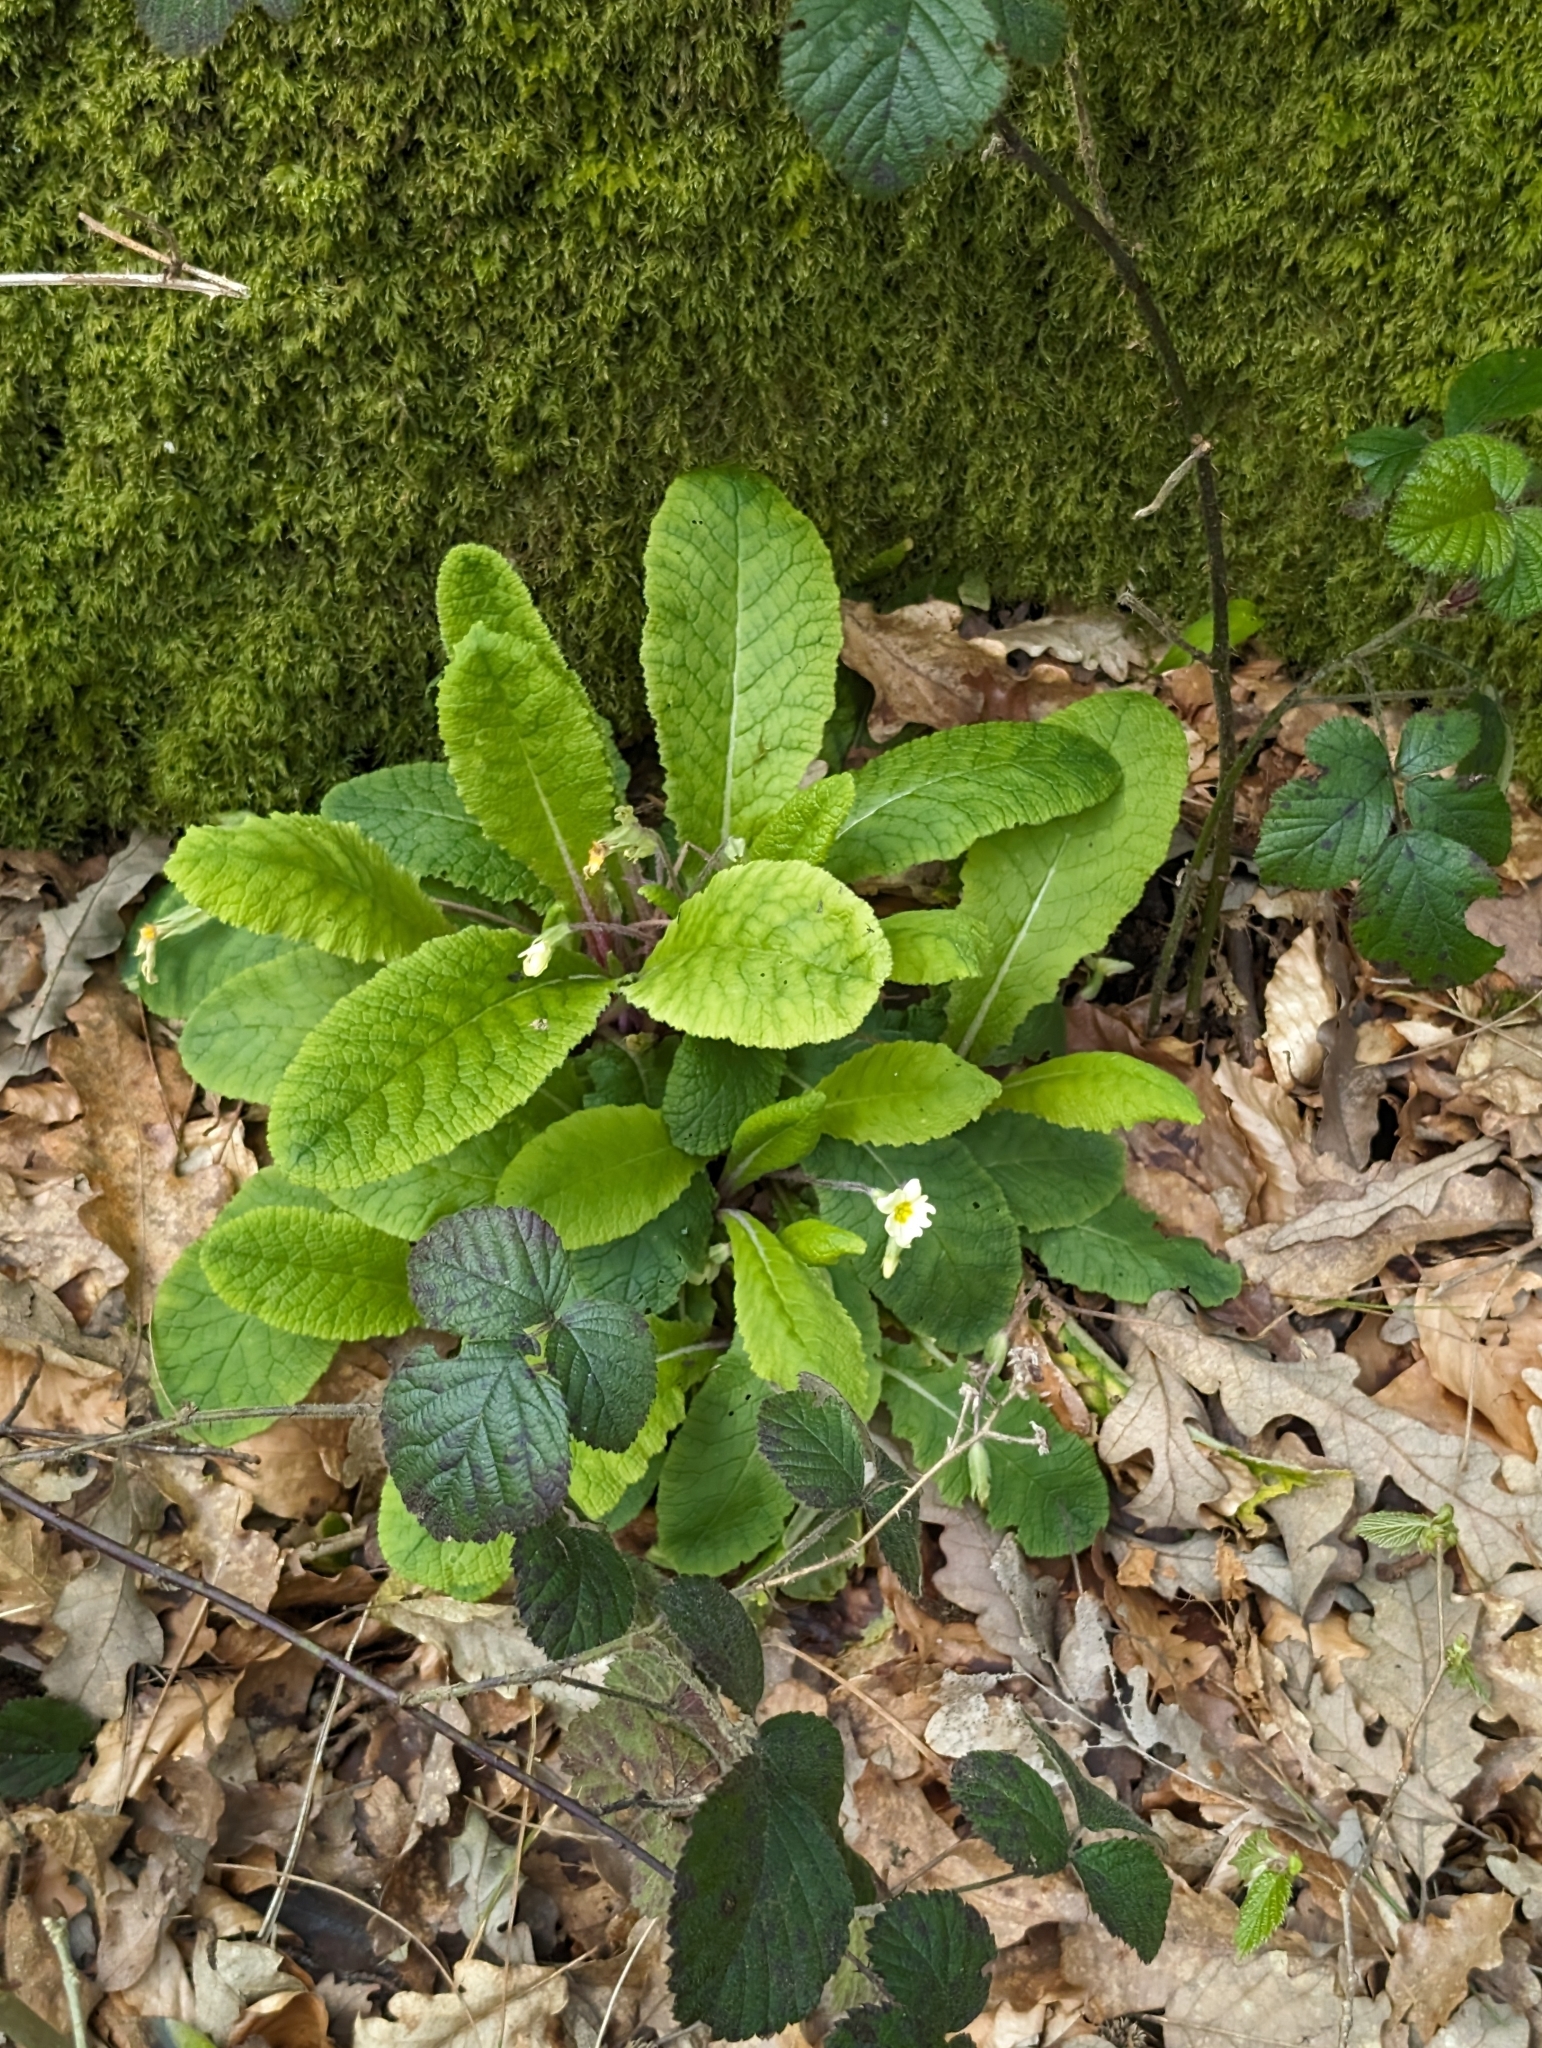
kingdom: Plantae
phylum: Tracheophyta
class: Magnoliopsida
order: Ericales
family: Primulaceae
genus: Primula
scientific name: Primula vulgaris
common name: Primrose
